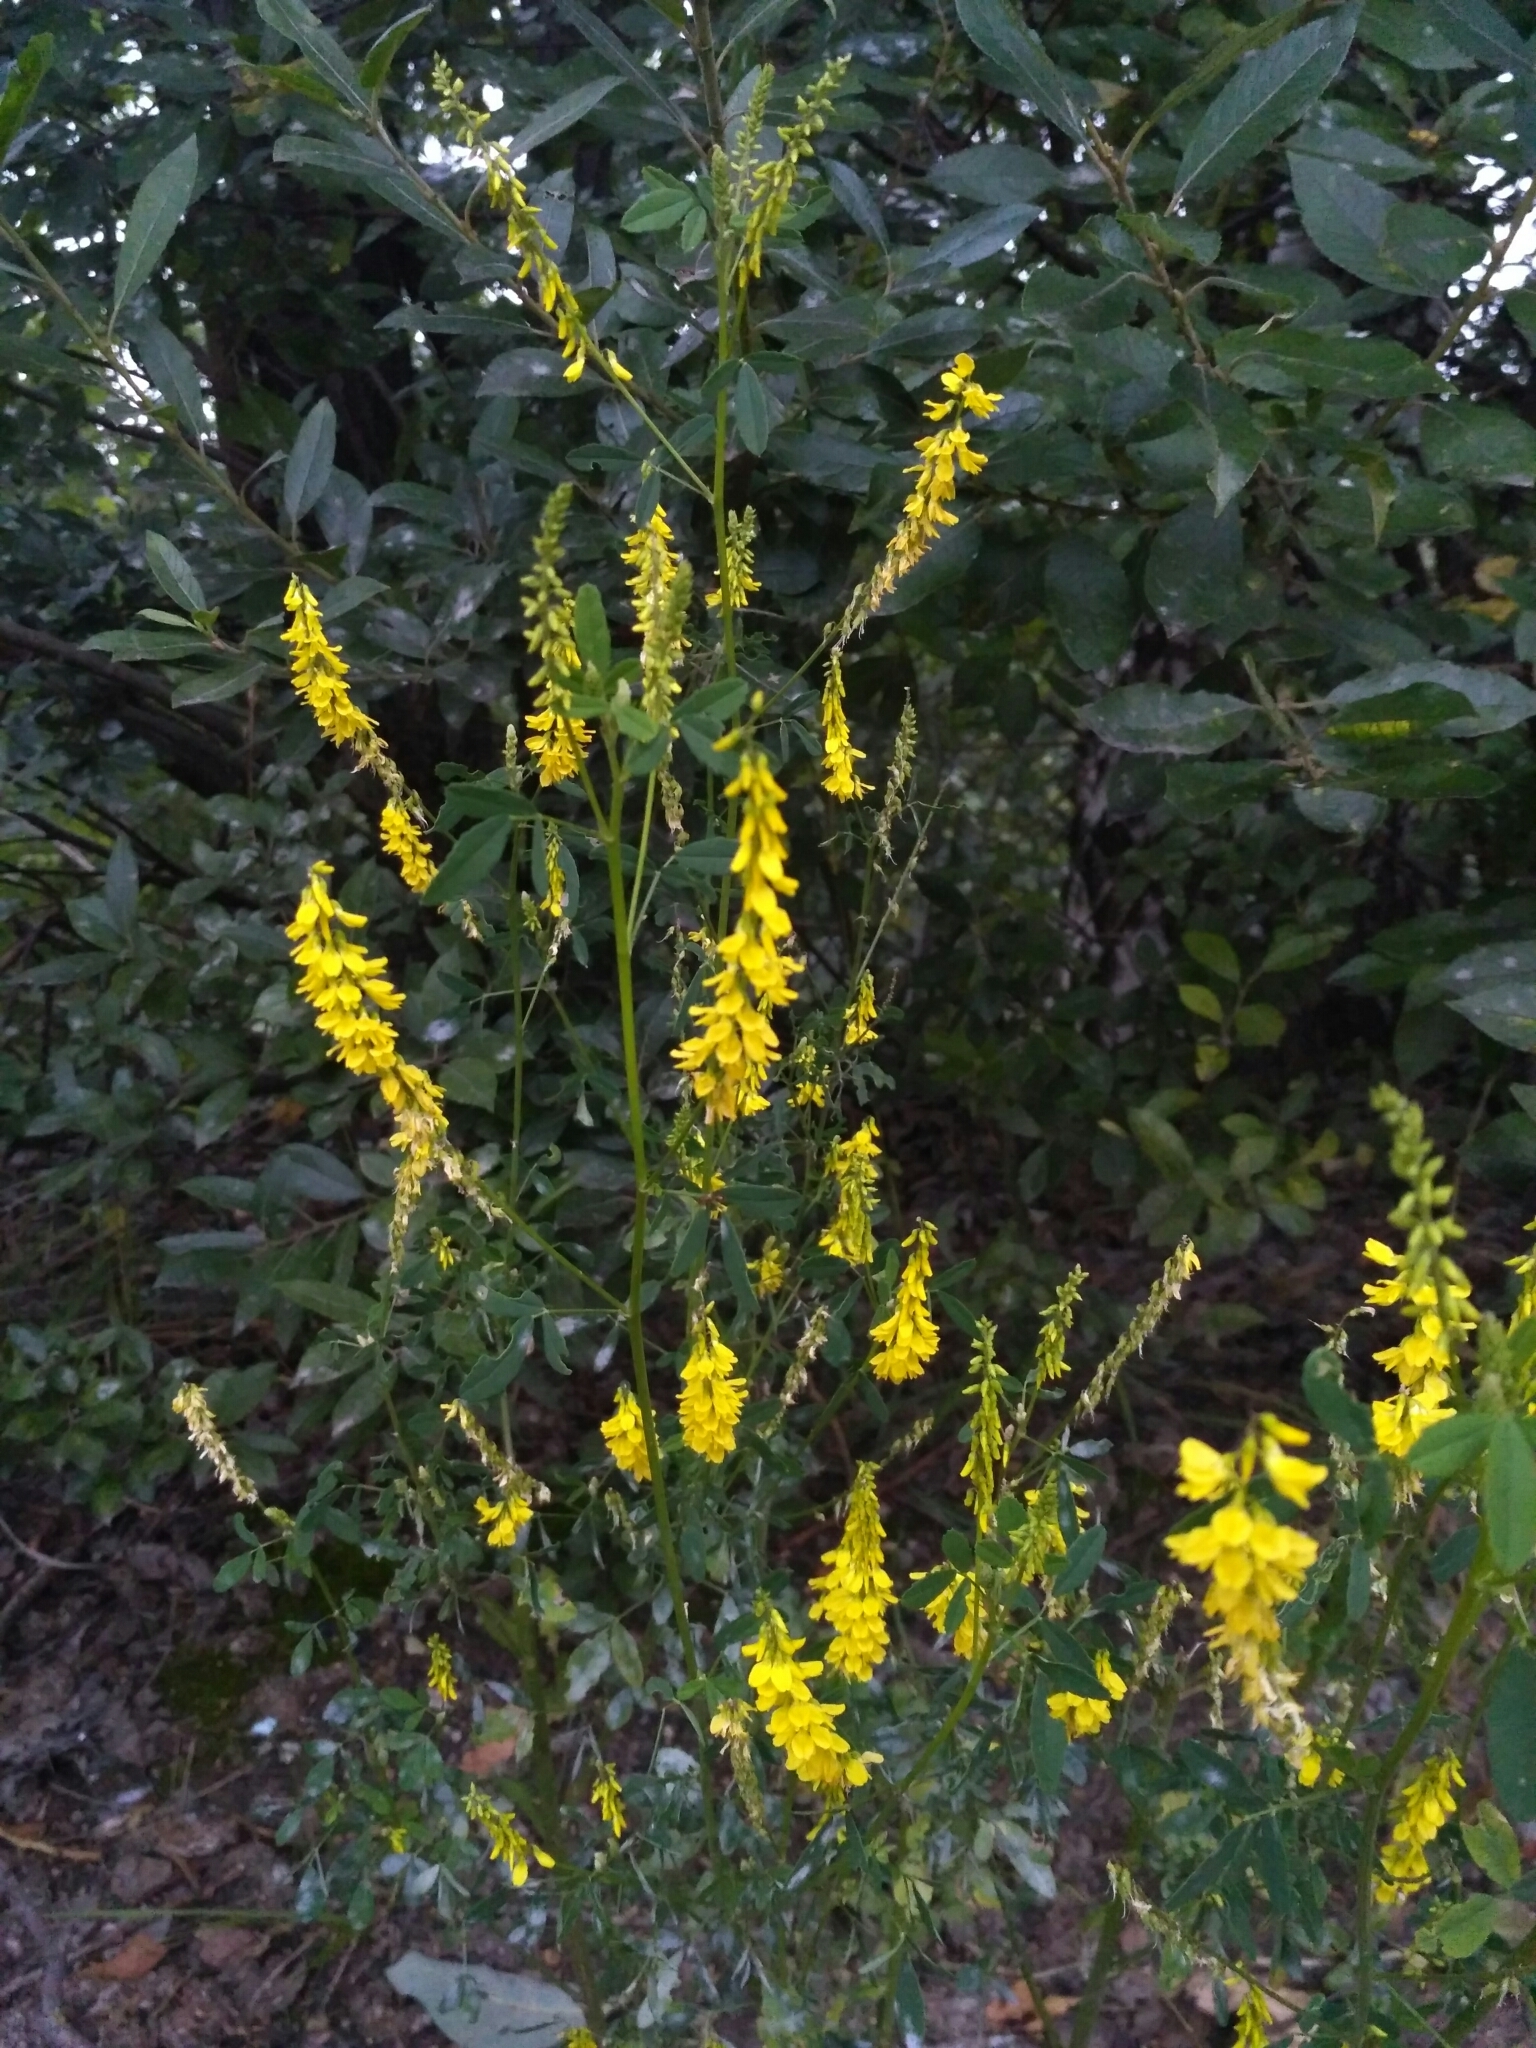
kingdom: Plantae
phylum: Tracheophyta
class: Magnoliopsida
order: Fabales
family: Fabaceae
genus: Melilotus
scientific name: Melilotus officinalis
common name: Sweetclover
